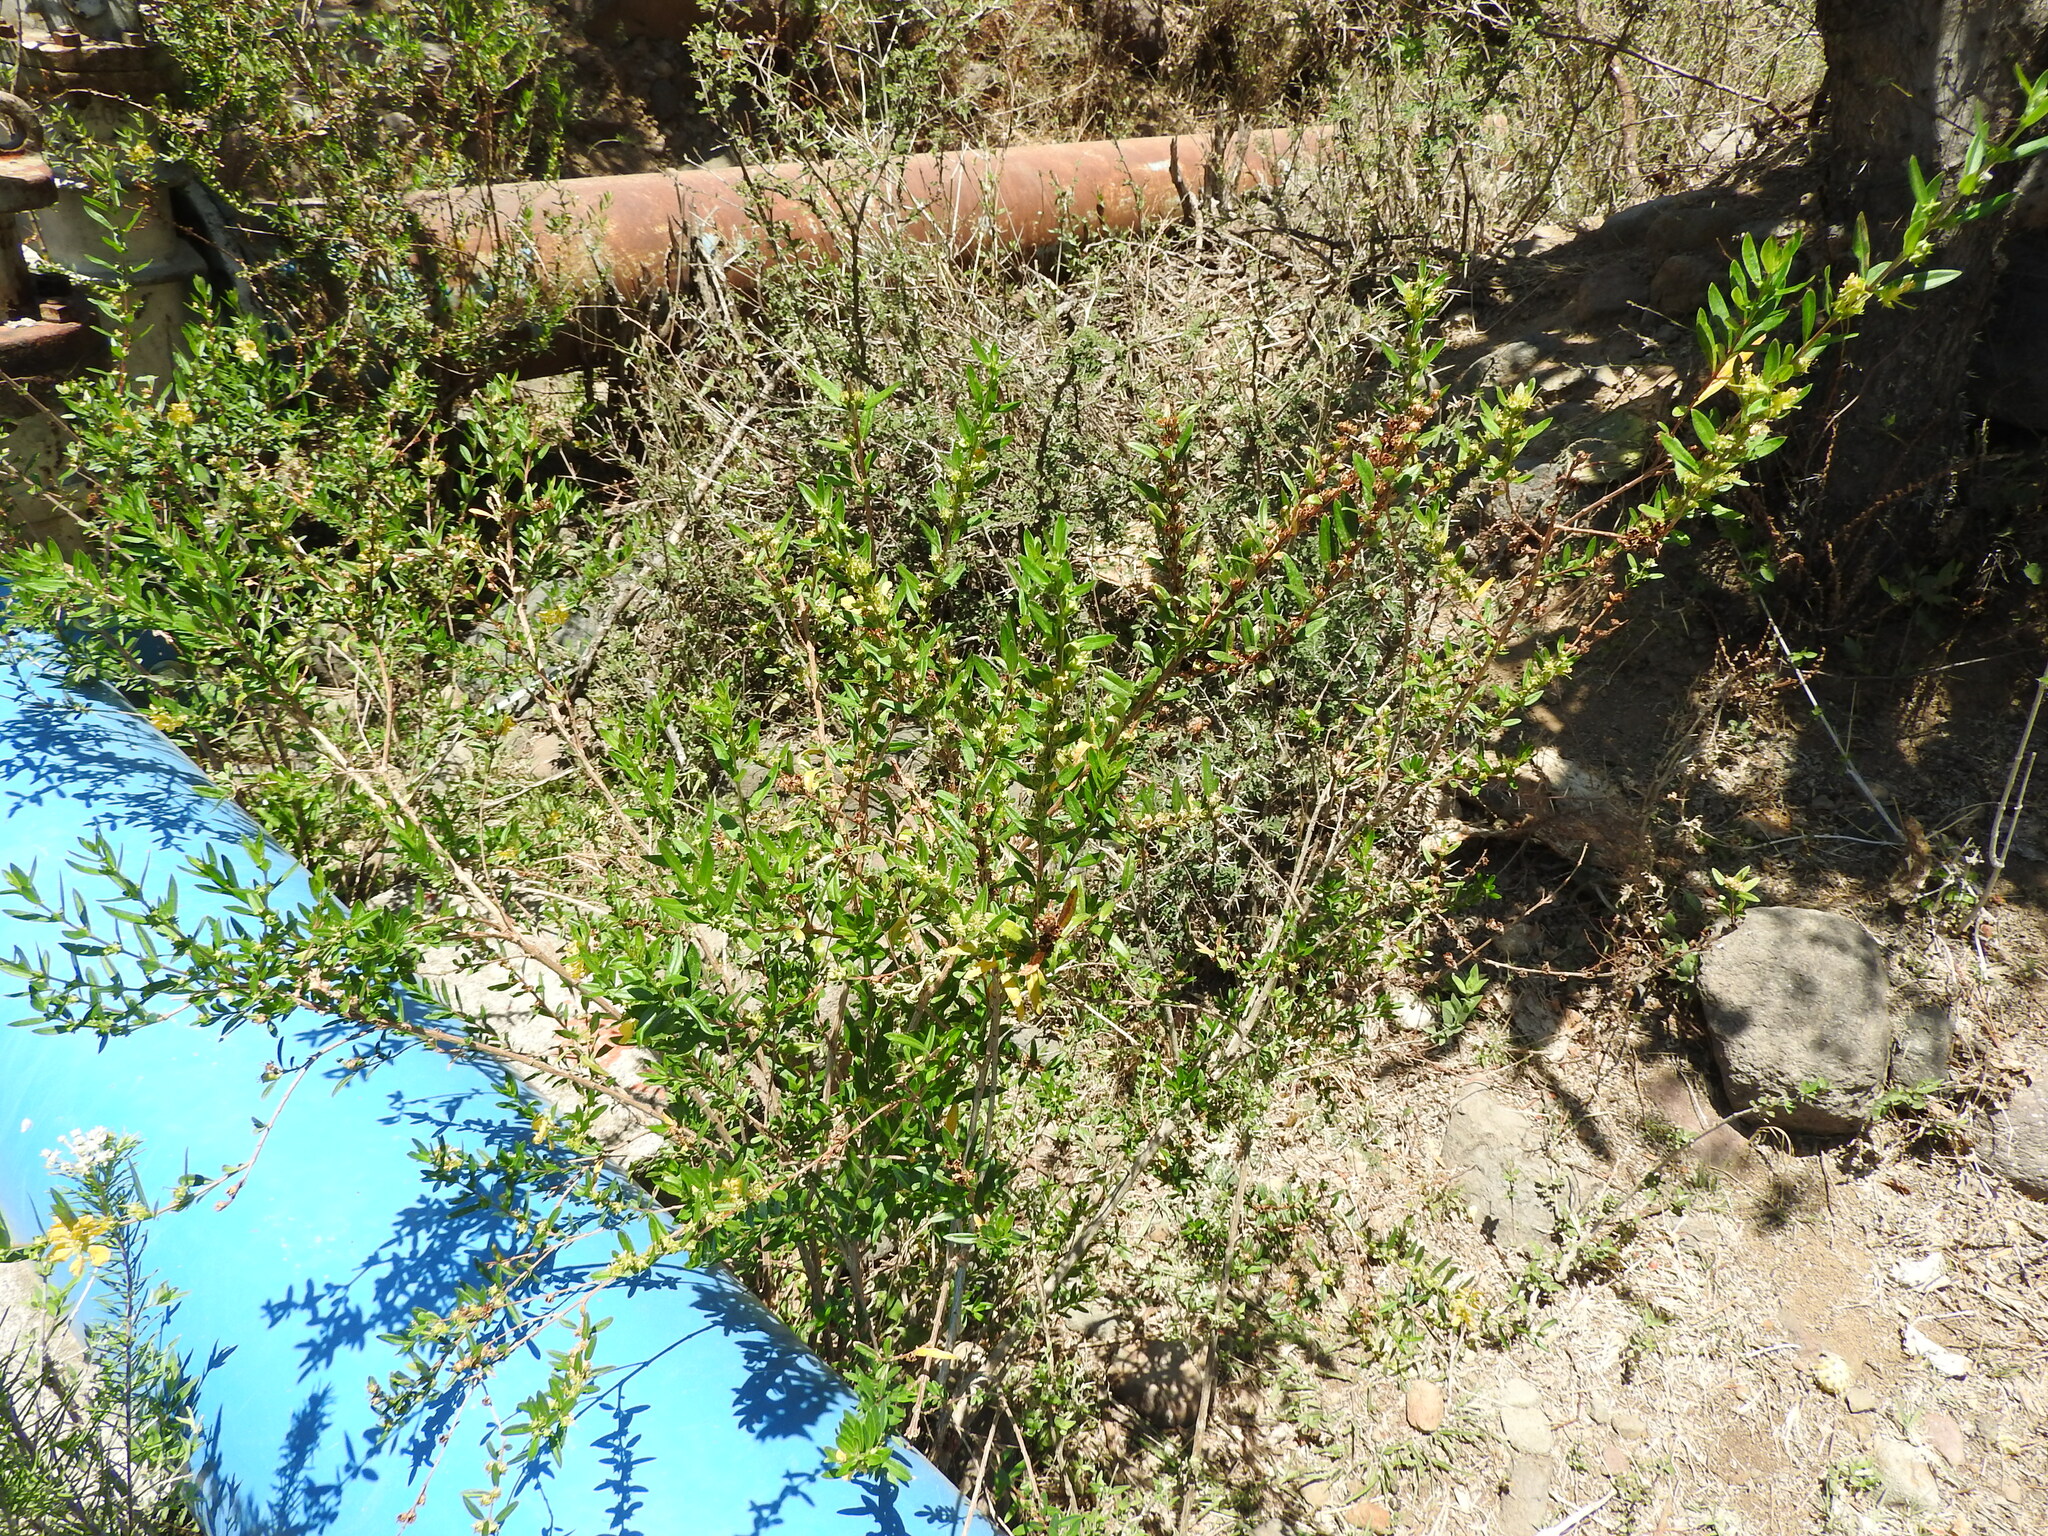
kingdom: Plantae
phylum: Tracheophyta
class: Magnoliopsida
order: Myrtales
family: Lythraceae
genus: Heimia
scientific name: Heimia salicifolia
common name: Willow-leaf heimia
